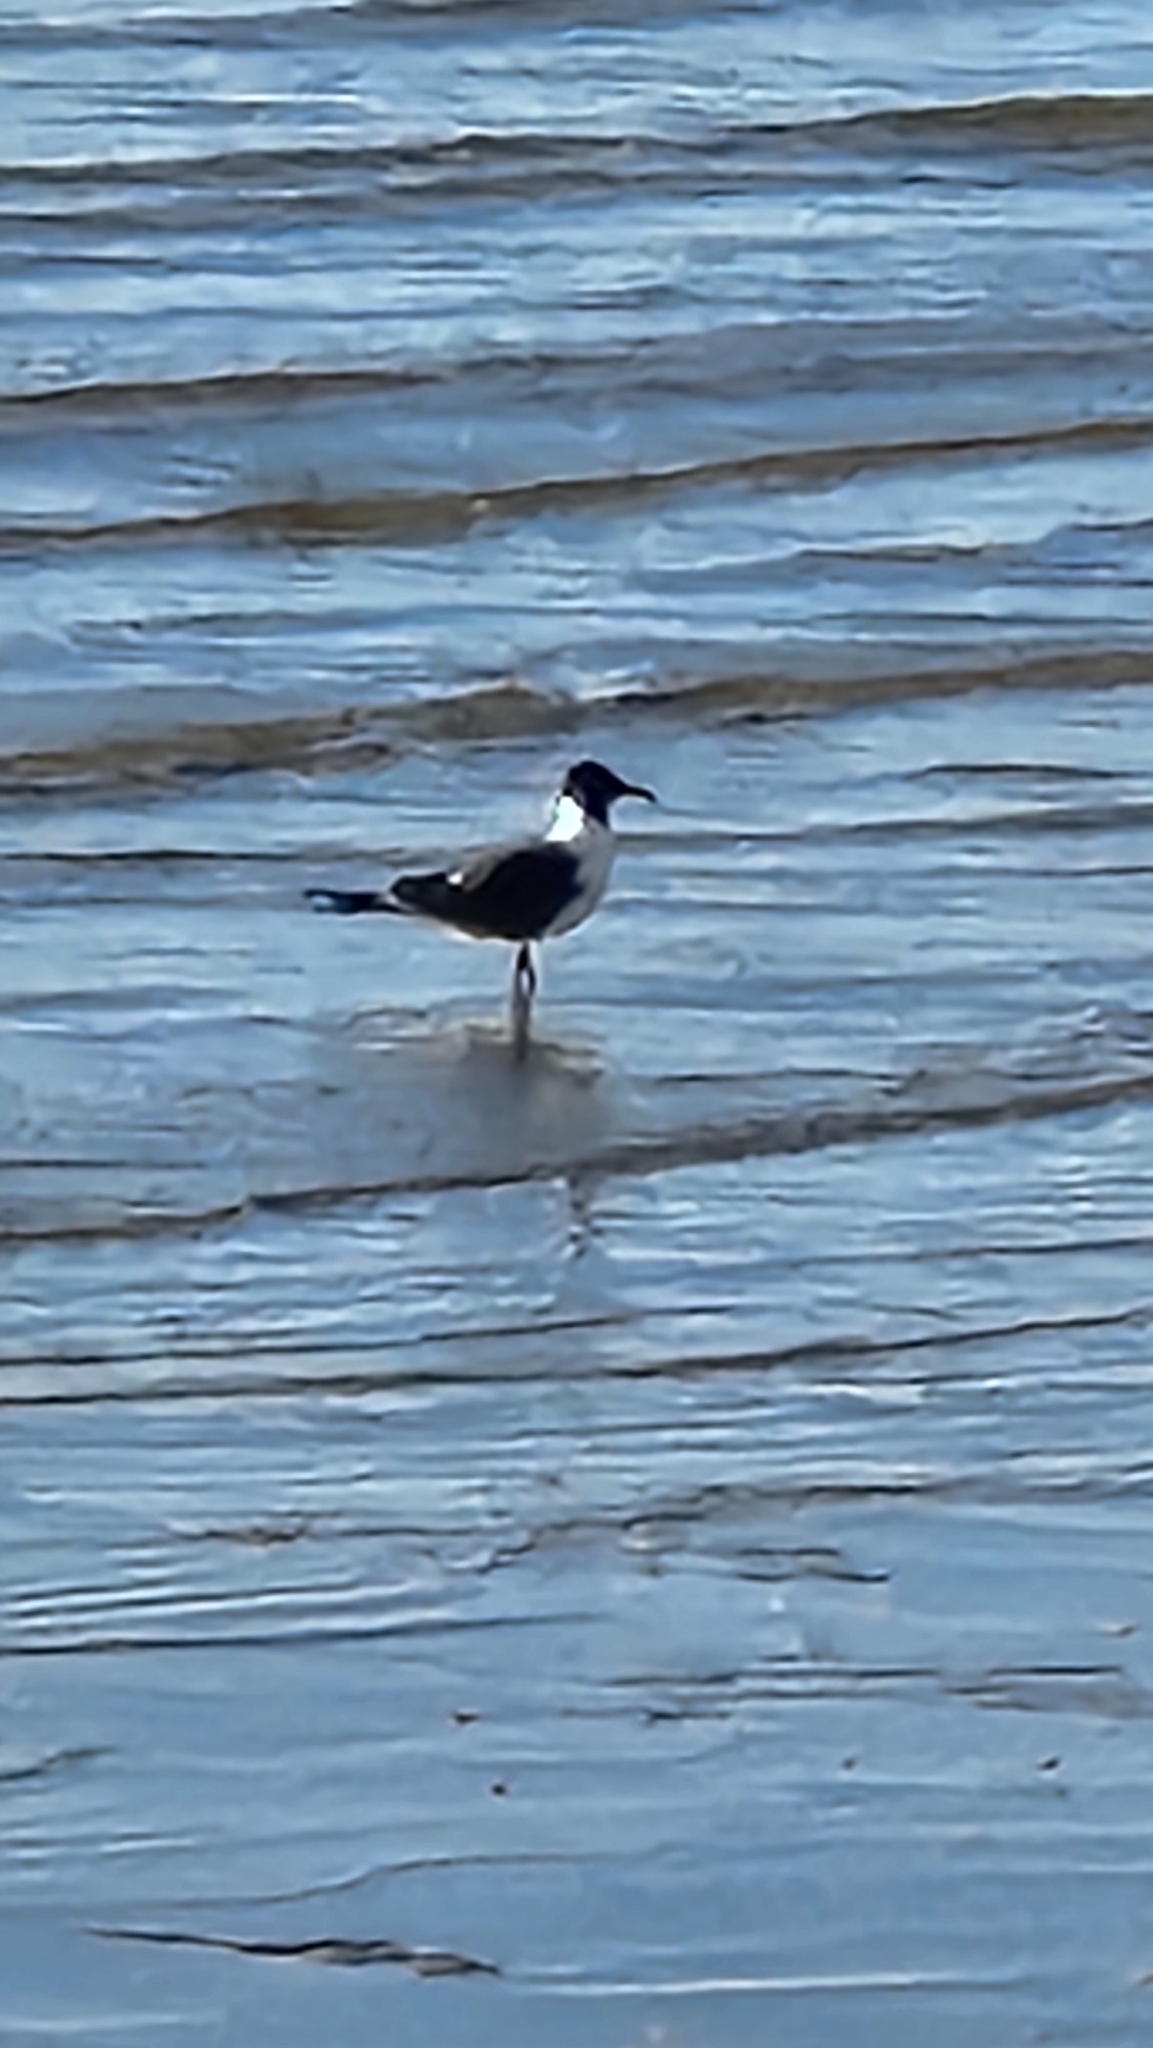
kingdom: Animalia
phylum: Chordata
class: Aves
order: Charadriiformes
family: Laridae
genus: Leucophaeus
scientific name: Leucophaeus atricilla
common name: Laughing gull
